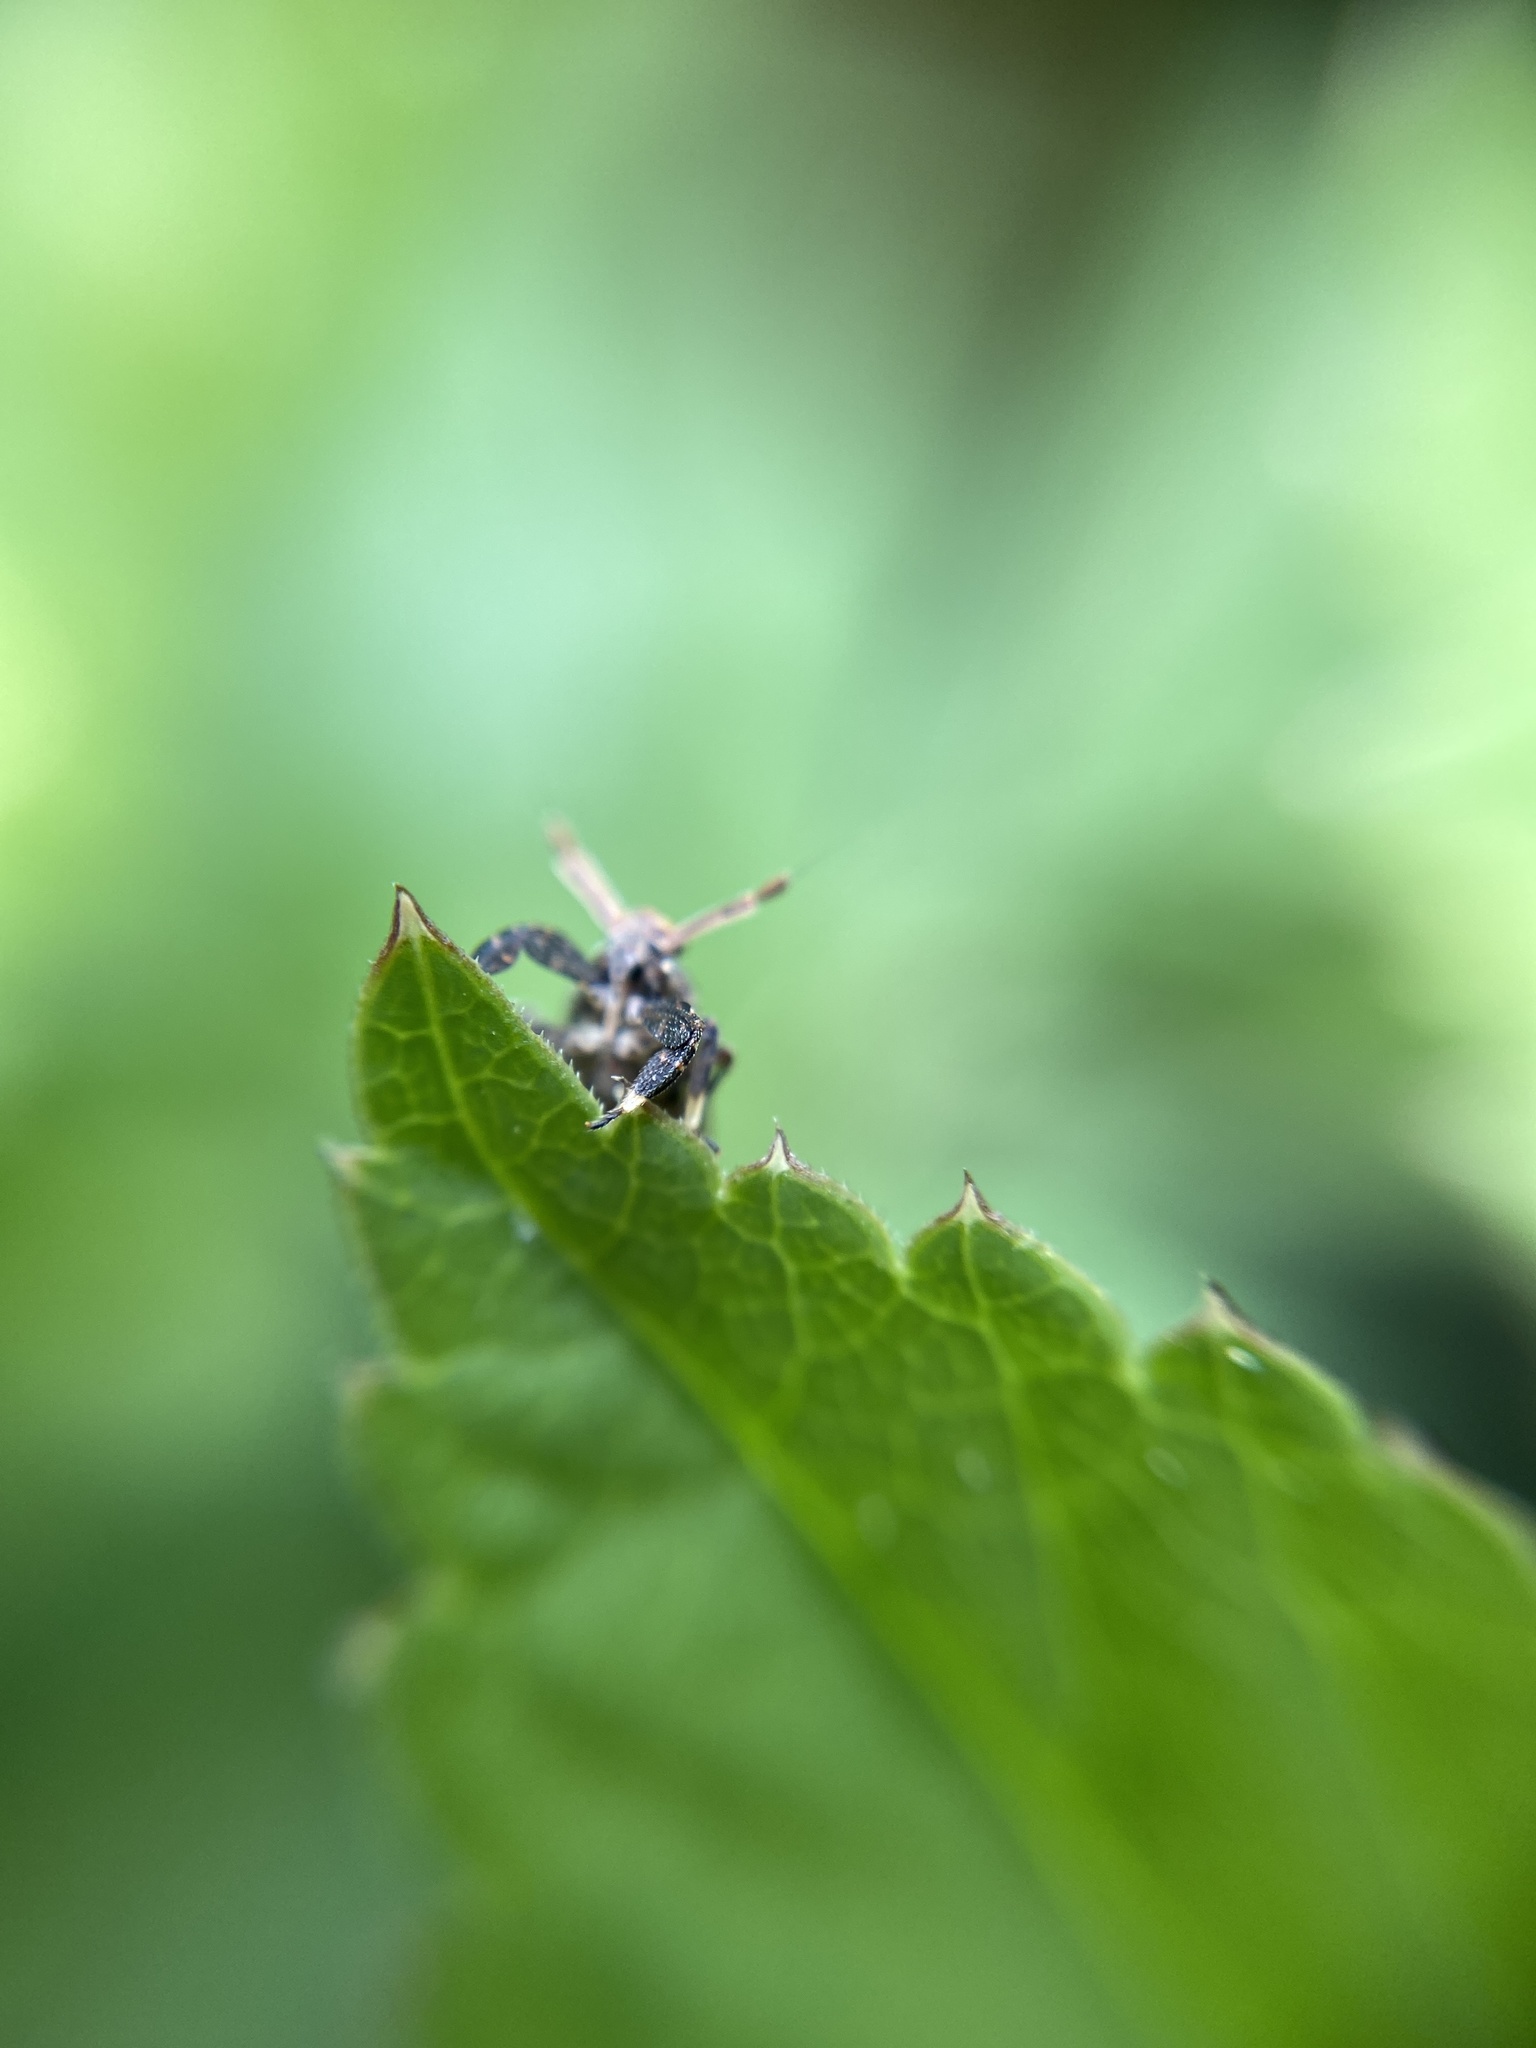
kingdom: Animalia
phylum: Arthropoda
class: Insecta
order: Hemiptera
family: Delphacidae
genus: Asiraca
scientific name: Asiraca clavicornis
